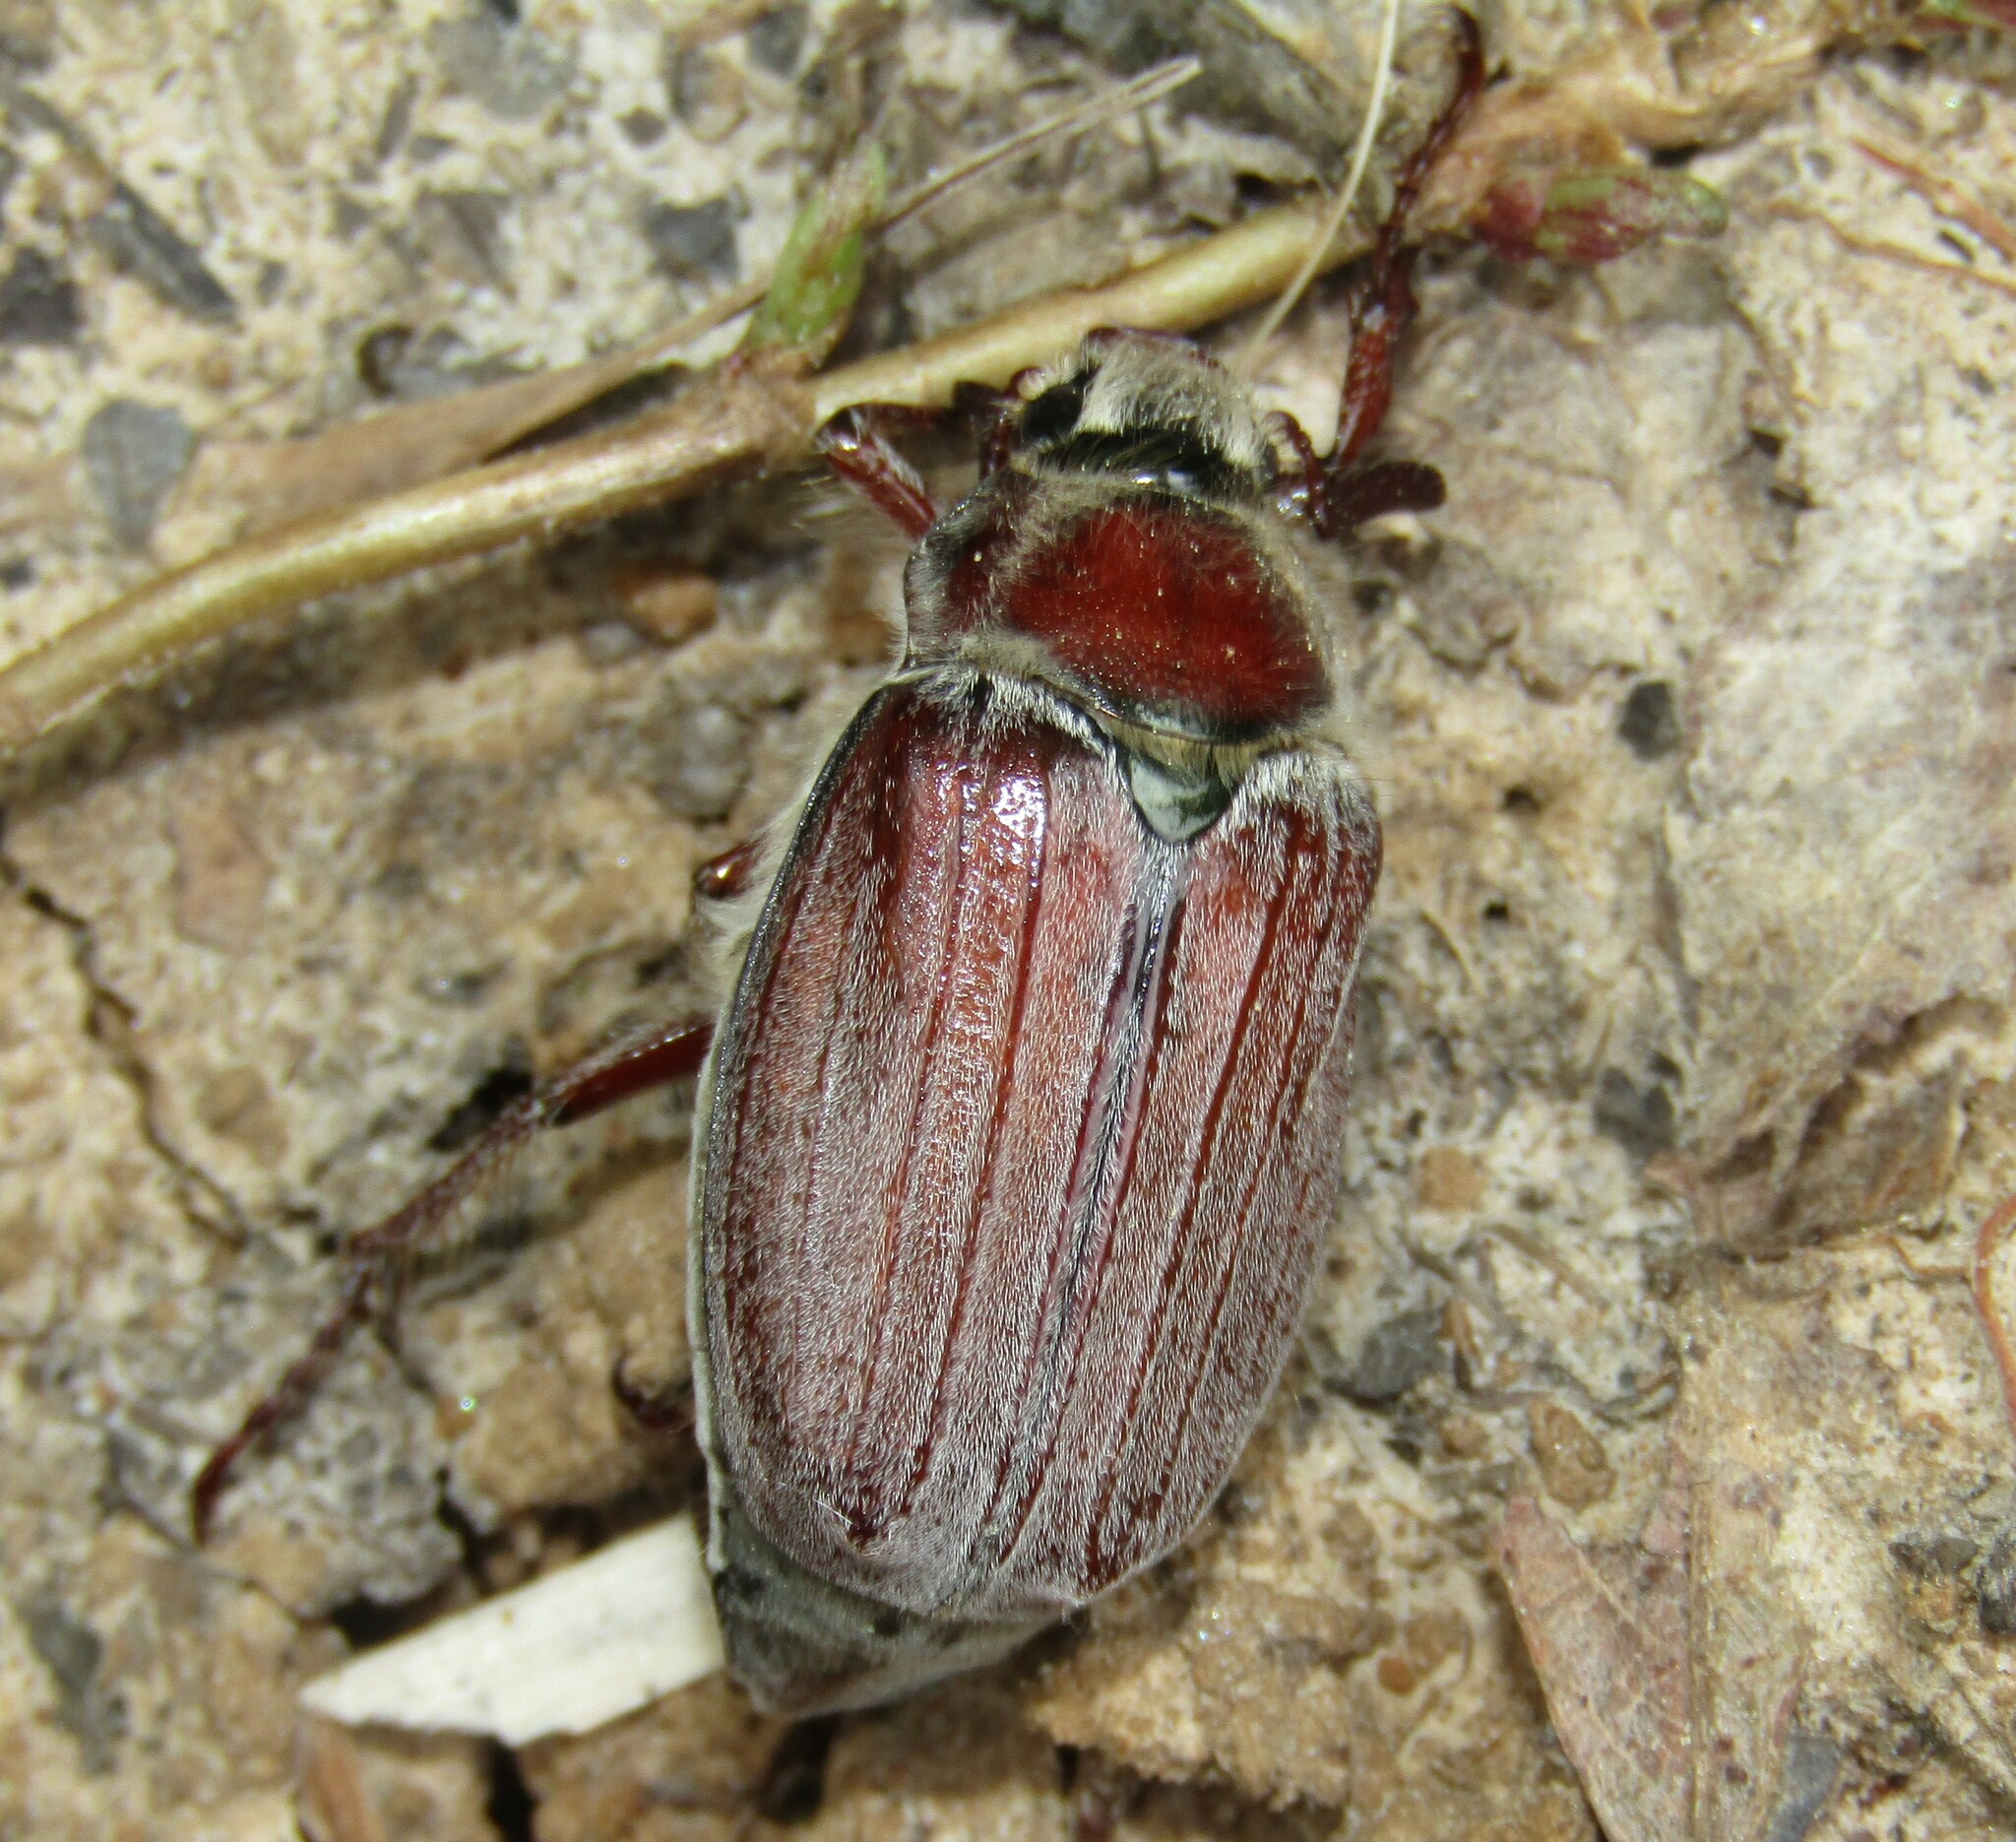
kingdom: Animalia
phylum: Arthropoda
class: Insecta
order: Coleoptera
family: Scarabaeidae
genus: Melolontha
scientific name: Melolontha hippocastani
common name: Chestnut cockchafer
